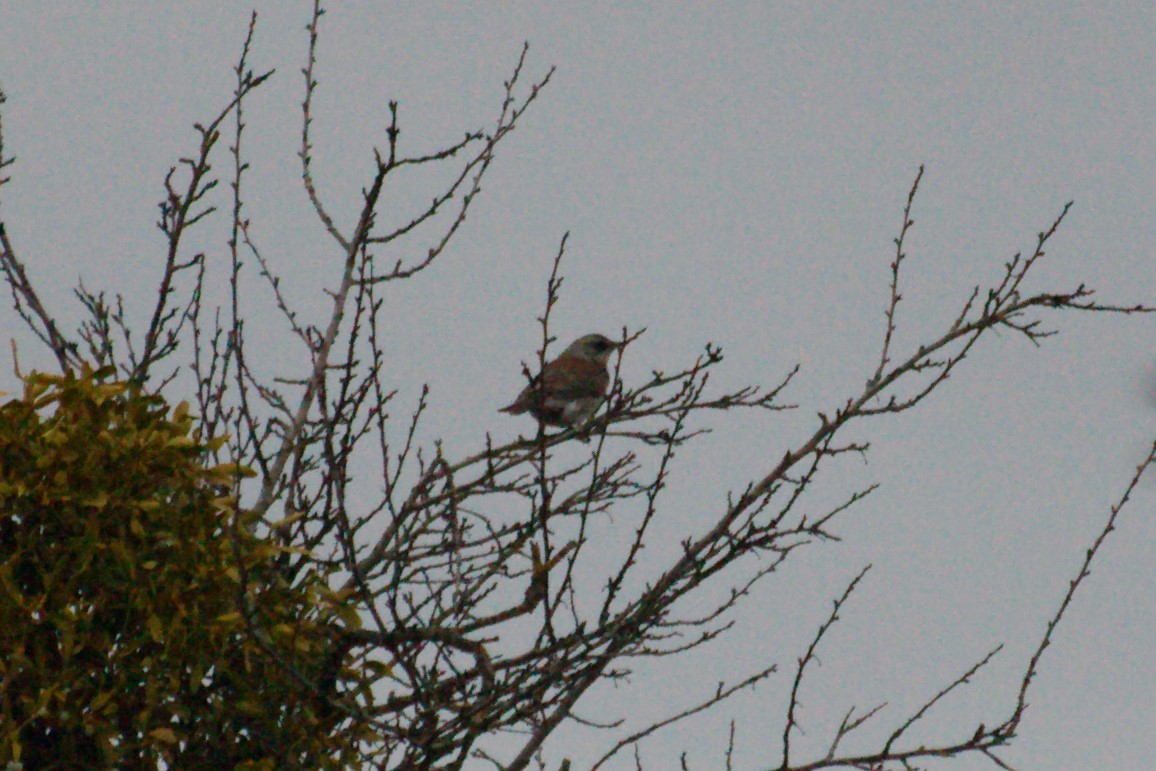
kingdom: Animalia
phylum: Chordata
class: Aves
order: Passeriformes
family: Turdidae
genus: Turdus
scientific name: Turdus pilaris
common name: Fieldfare
